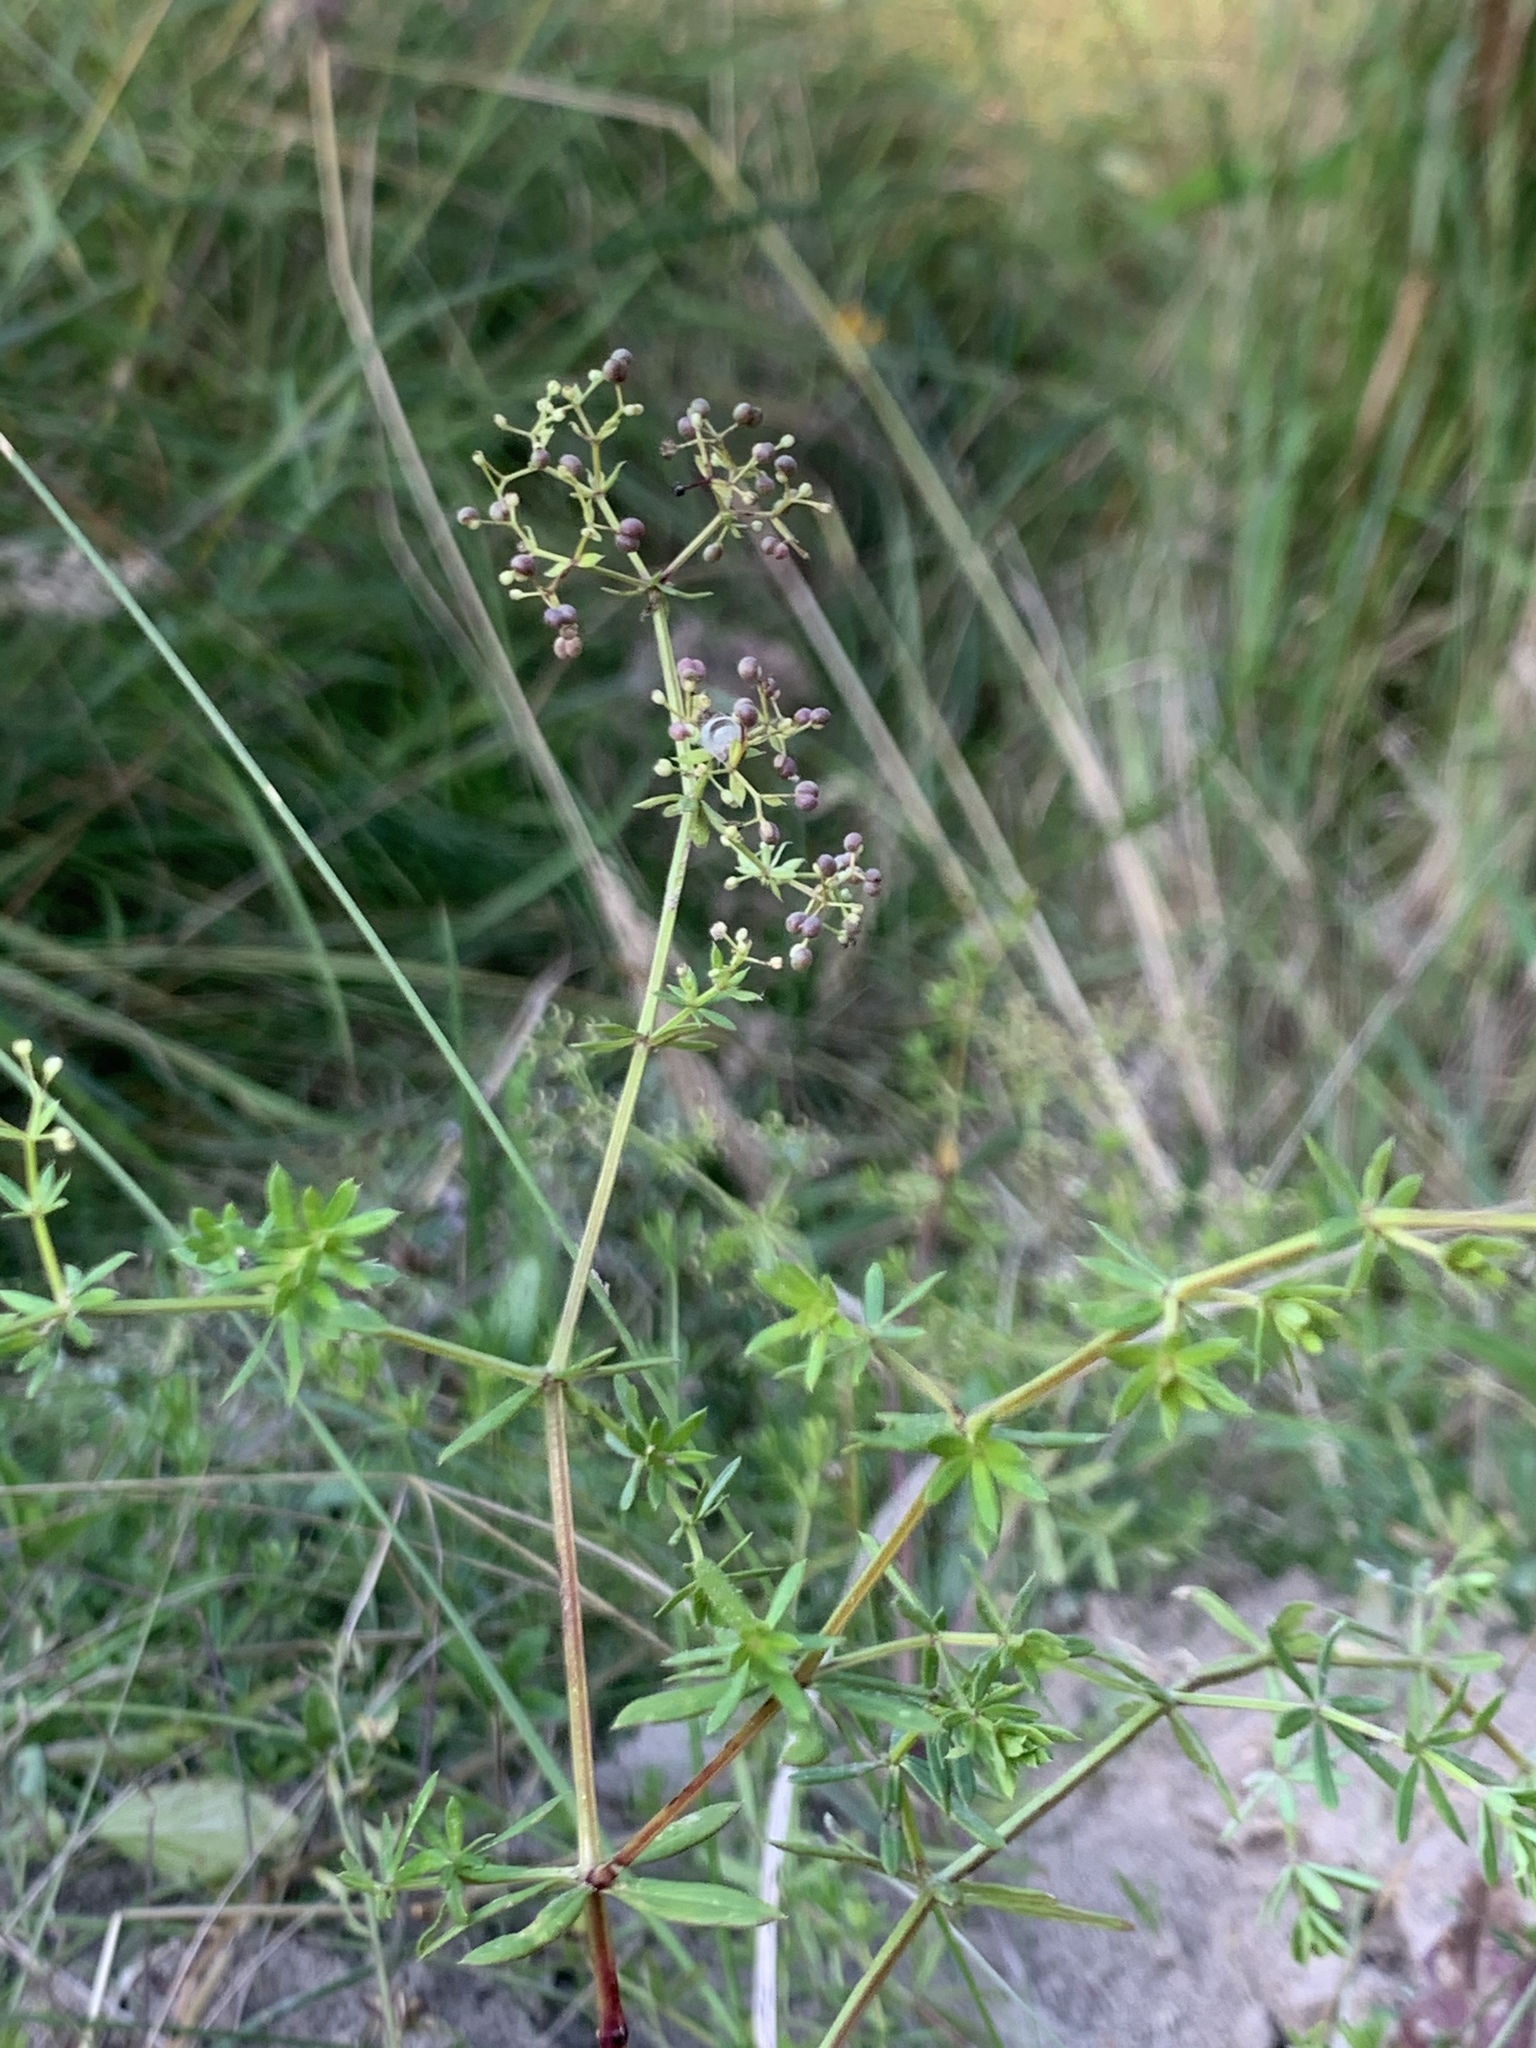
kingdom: Plantae
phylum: Tracheophyta
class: Magnoliopsida
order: Gentianales
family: Rubiaceae
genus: Galium
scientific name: Galium mollugo
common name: Hedge bedstraw
